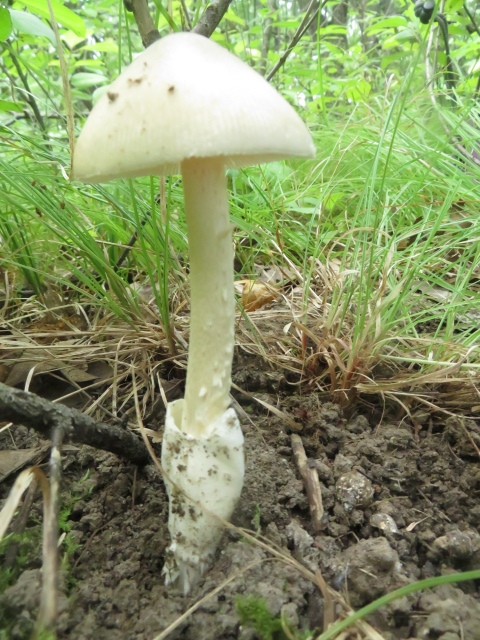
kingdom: Fungi
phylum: Basidiomycota
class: Agaricomycetes
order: Agaricales
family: Amanitaceae
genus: Amanita
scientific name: Amanita vaginata
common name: Grisette
